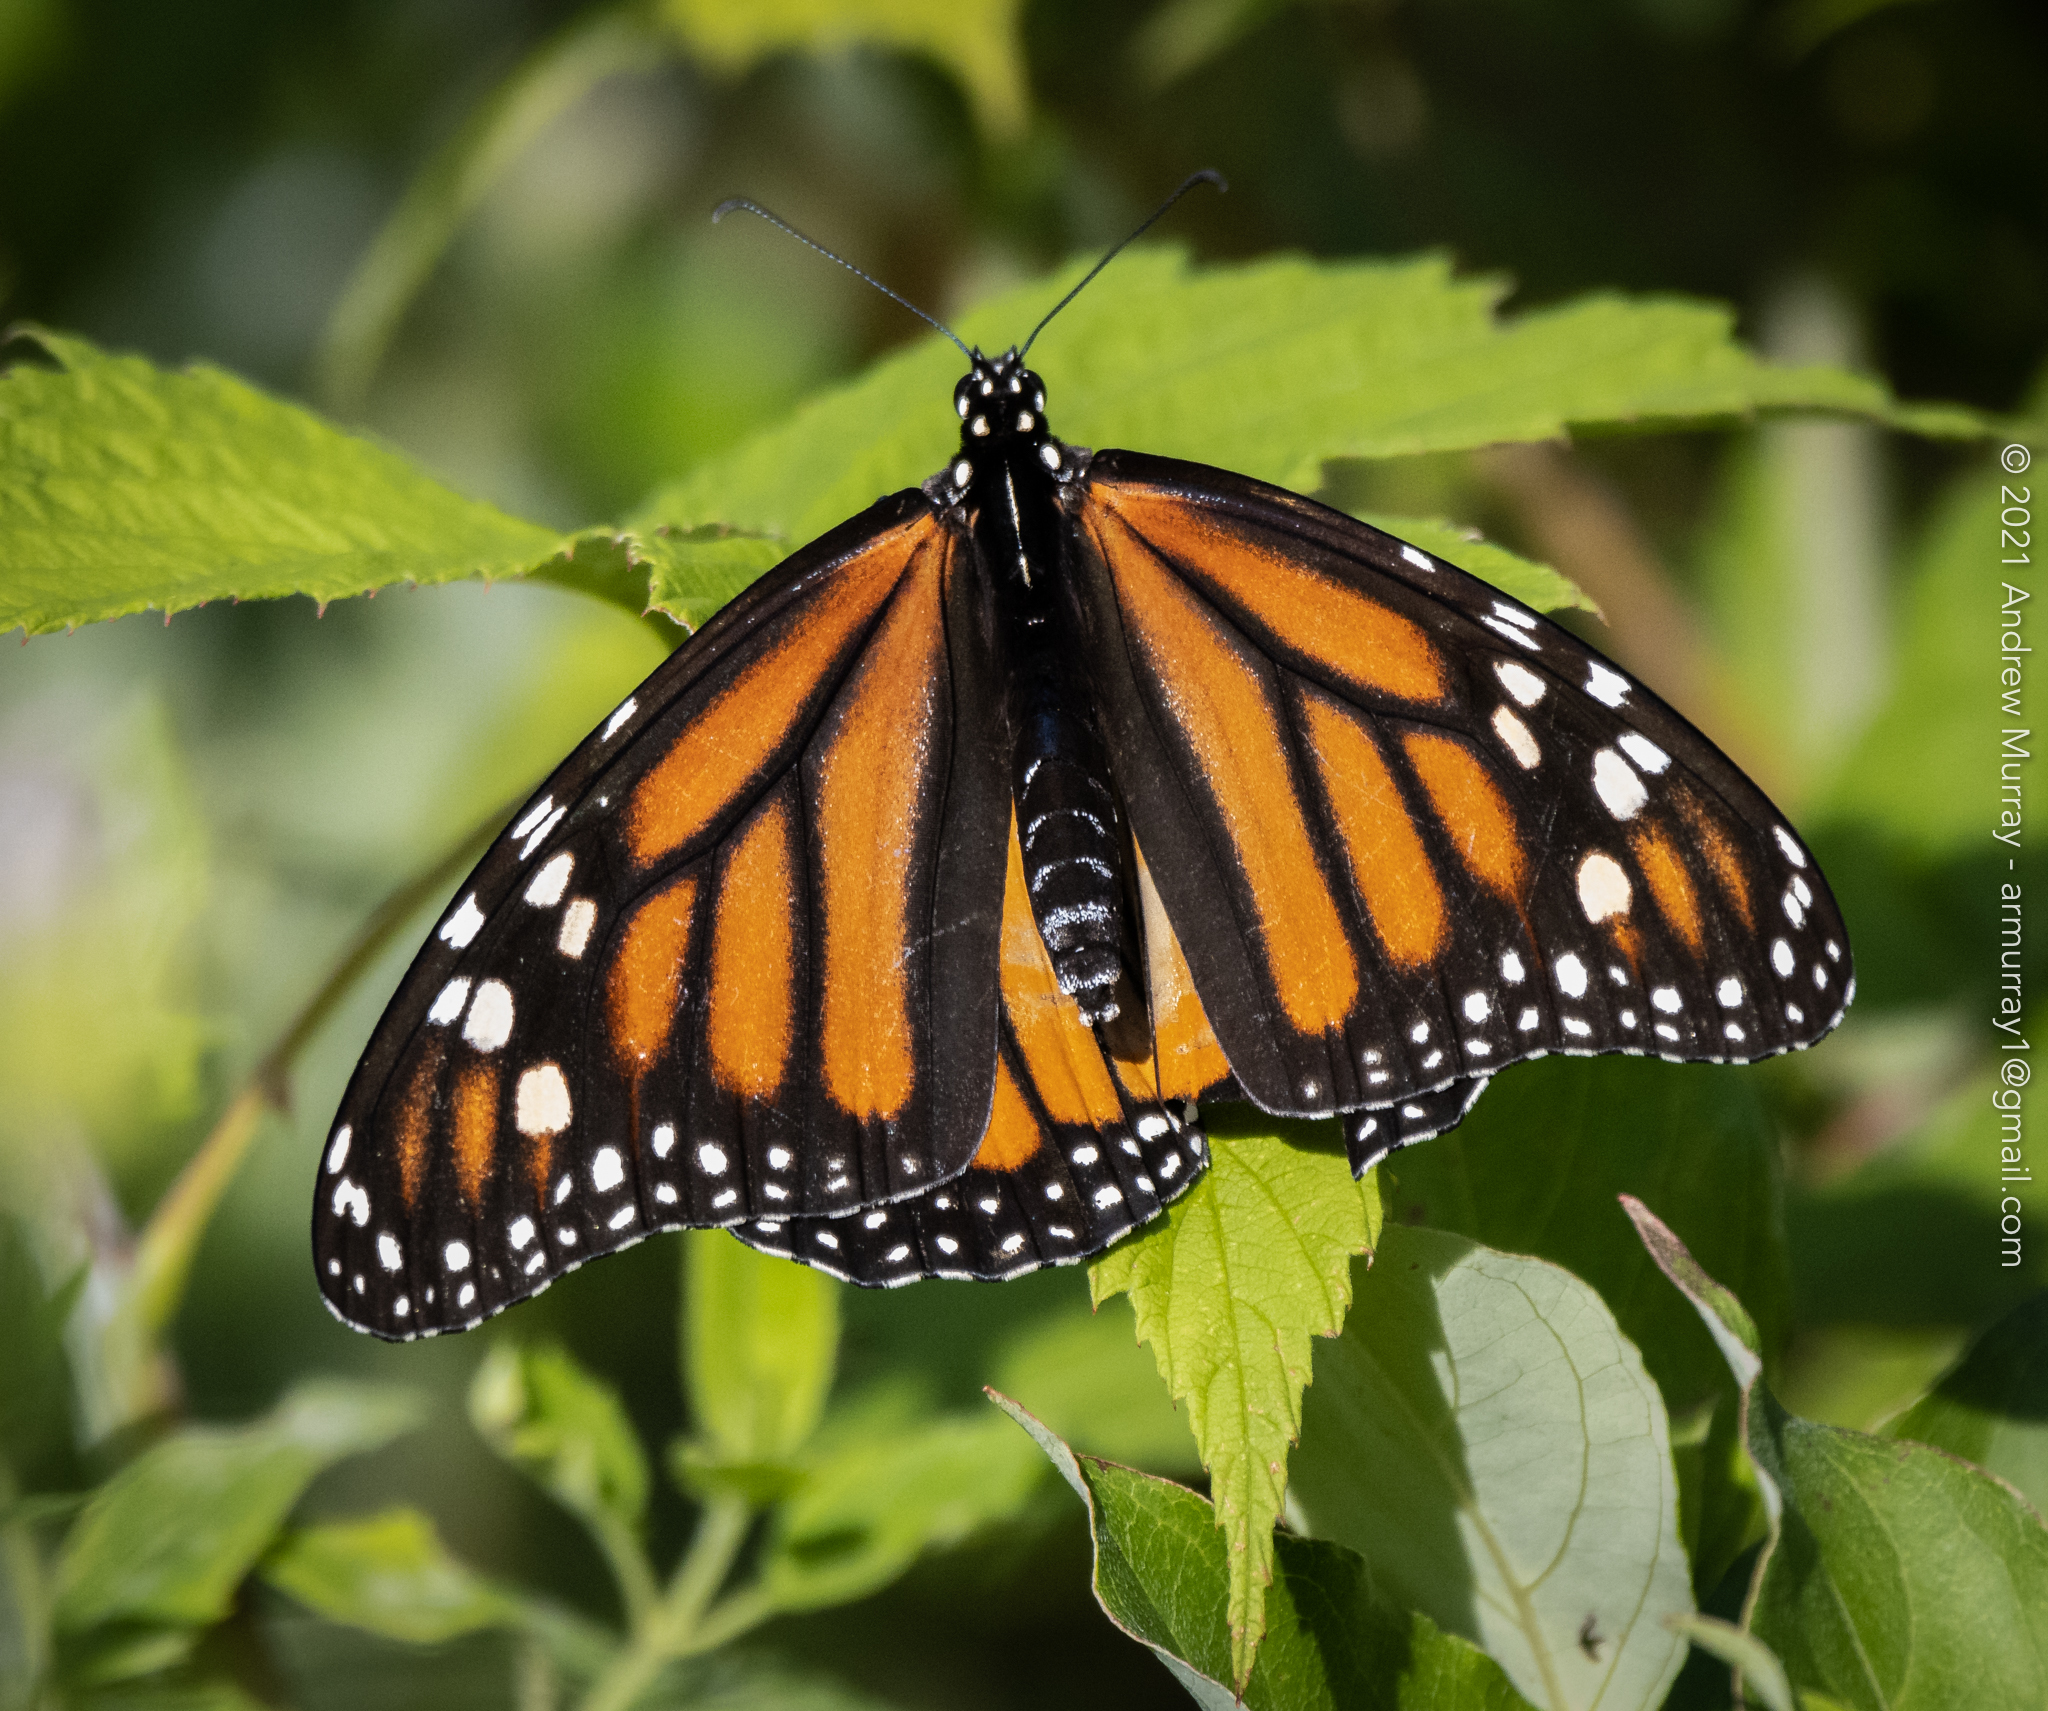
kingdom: Animalia
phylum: Arthropoda
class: Insecta
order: Lepidoptera
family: Nymphalidae
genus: Danaus
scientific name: Danaus plexippus
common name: Monarch
